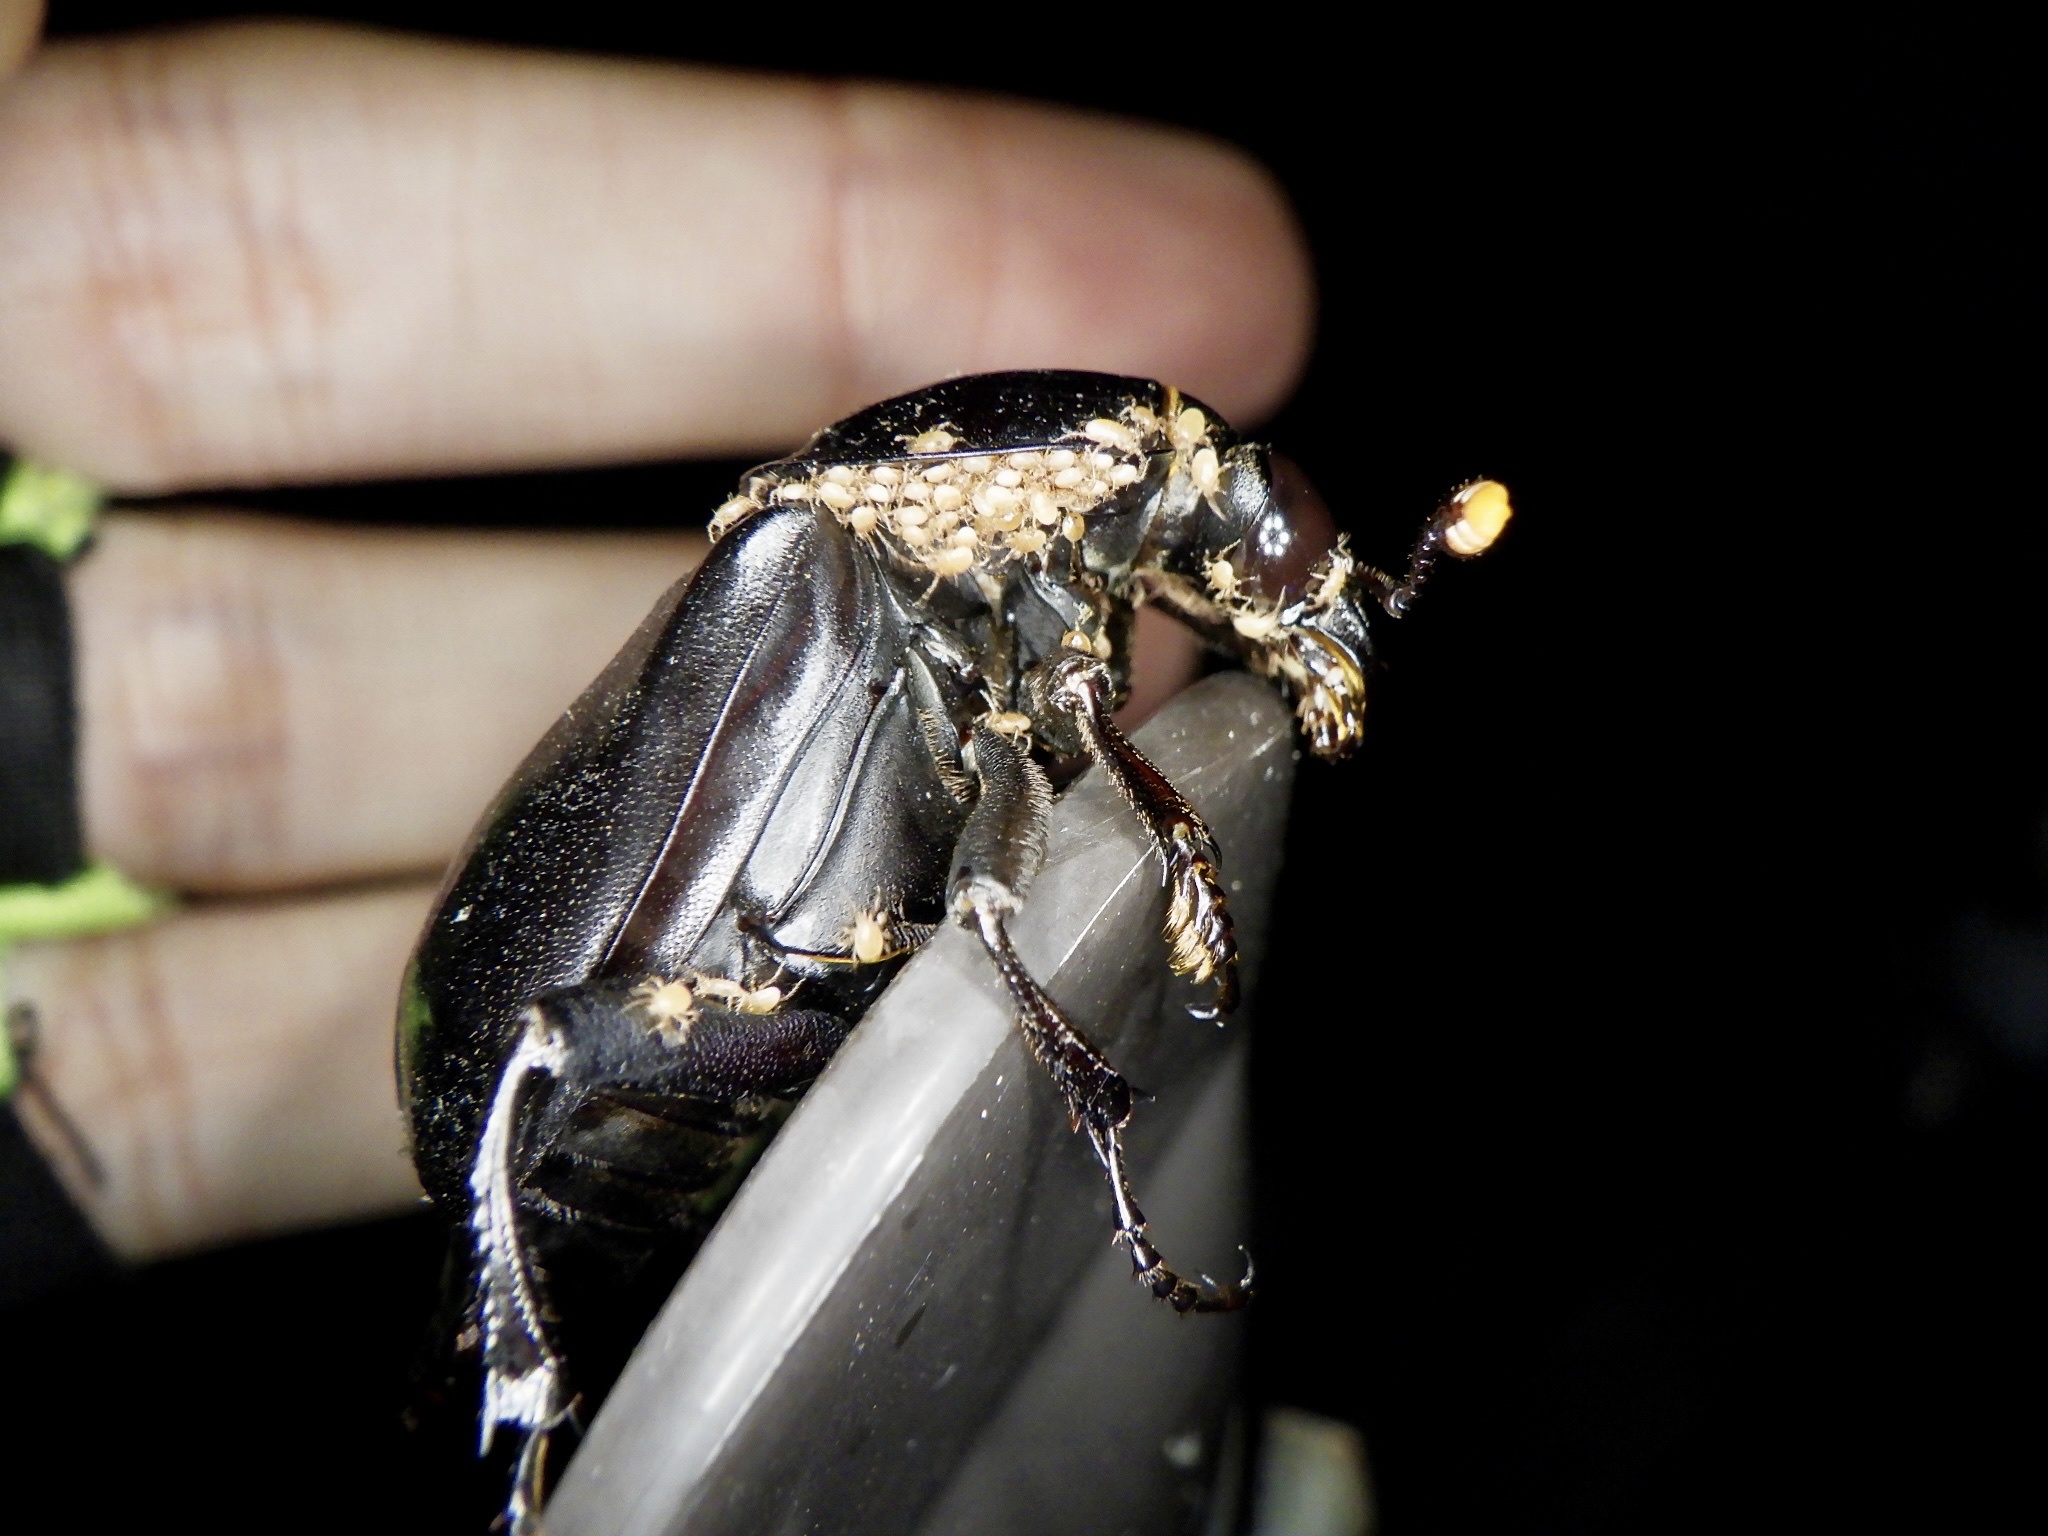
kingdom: Animalia
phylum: Arthropoda
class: Insecta
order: Coleoptera
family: Staphylinidae
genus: Nicrophorus
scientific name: Nicrophorus concolor
